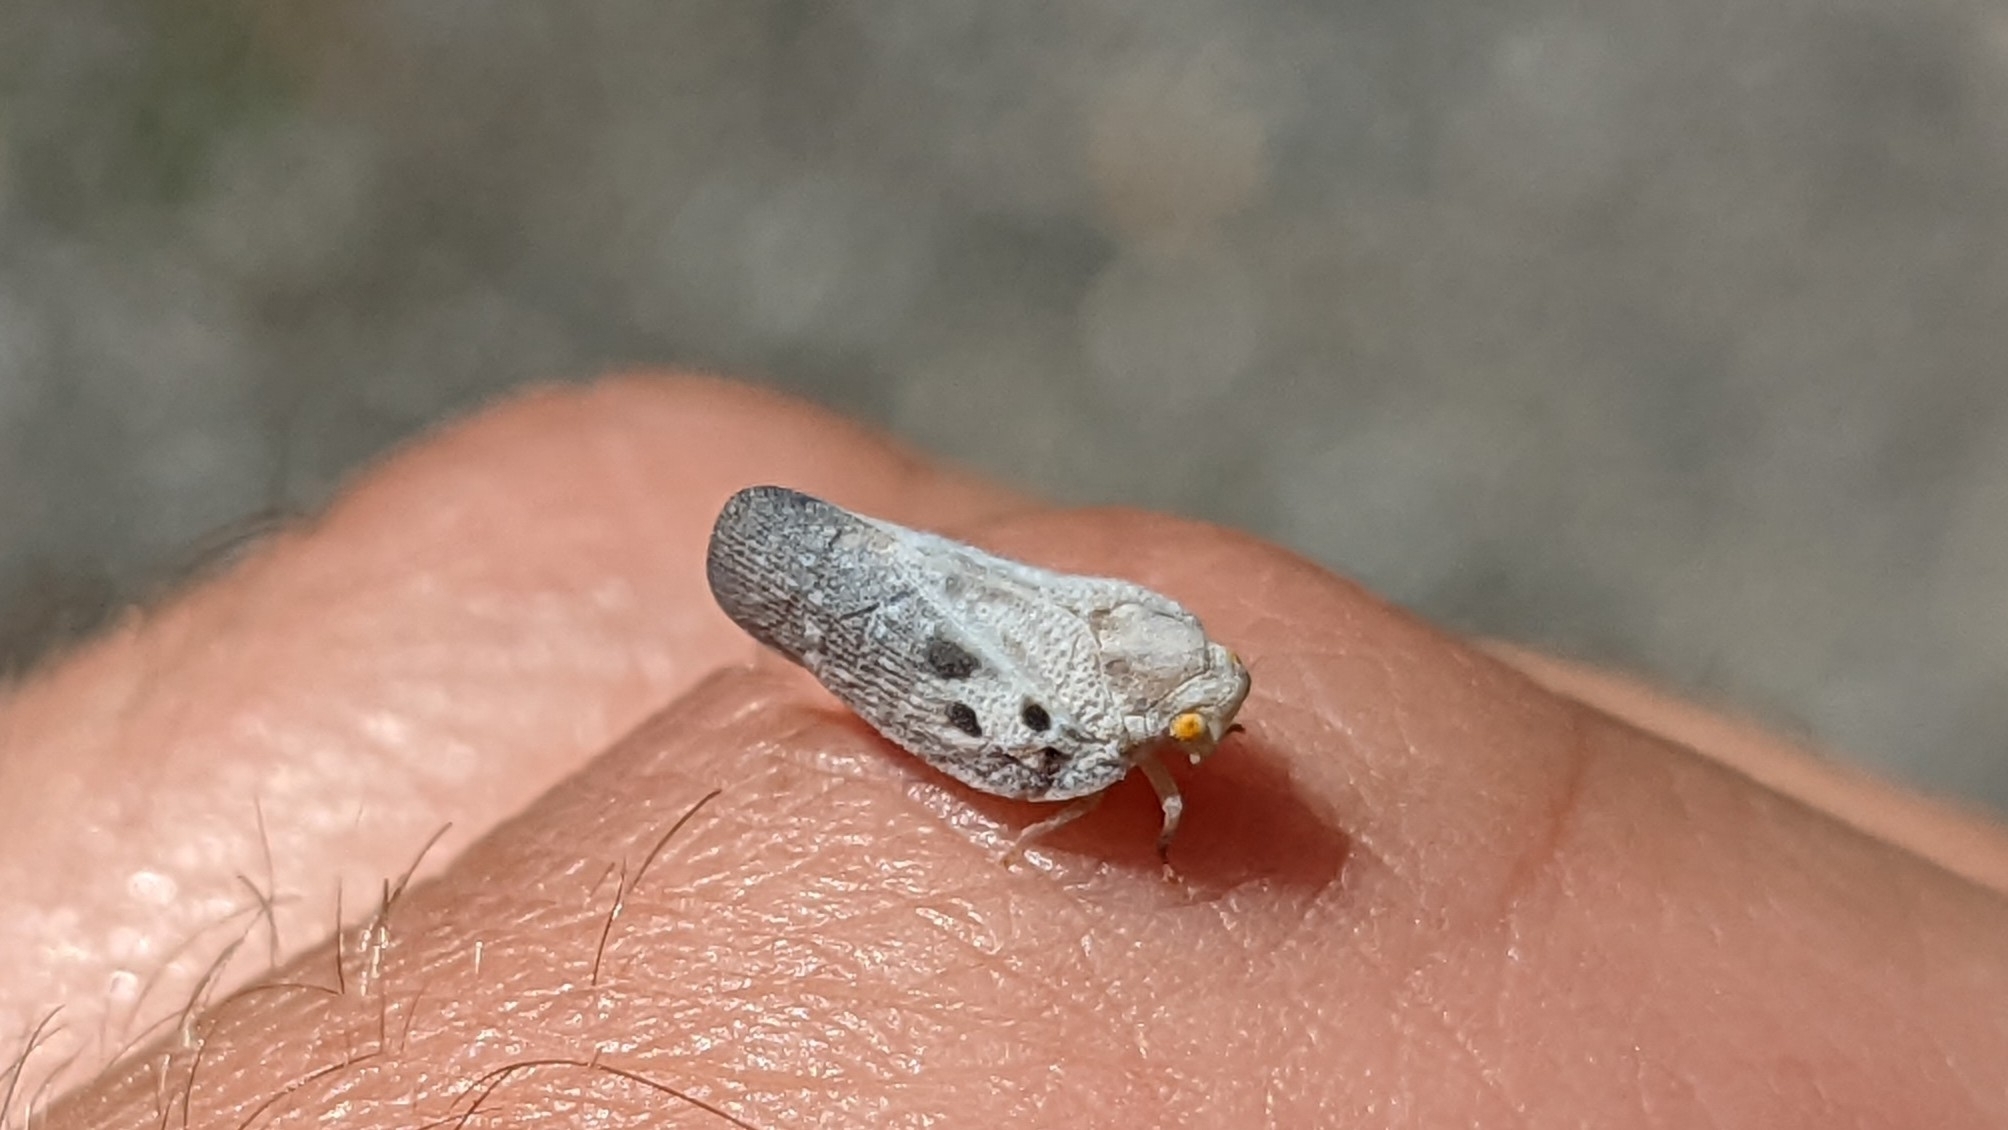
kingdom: Animalia
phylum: Arthropoda
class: Insecta
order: Hemiptera
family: Flatidae
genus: Metcalfa
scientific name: Metcalfa pruinosa
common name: Citrus flatid planthopper
